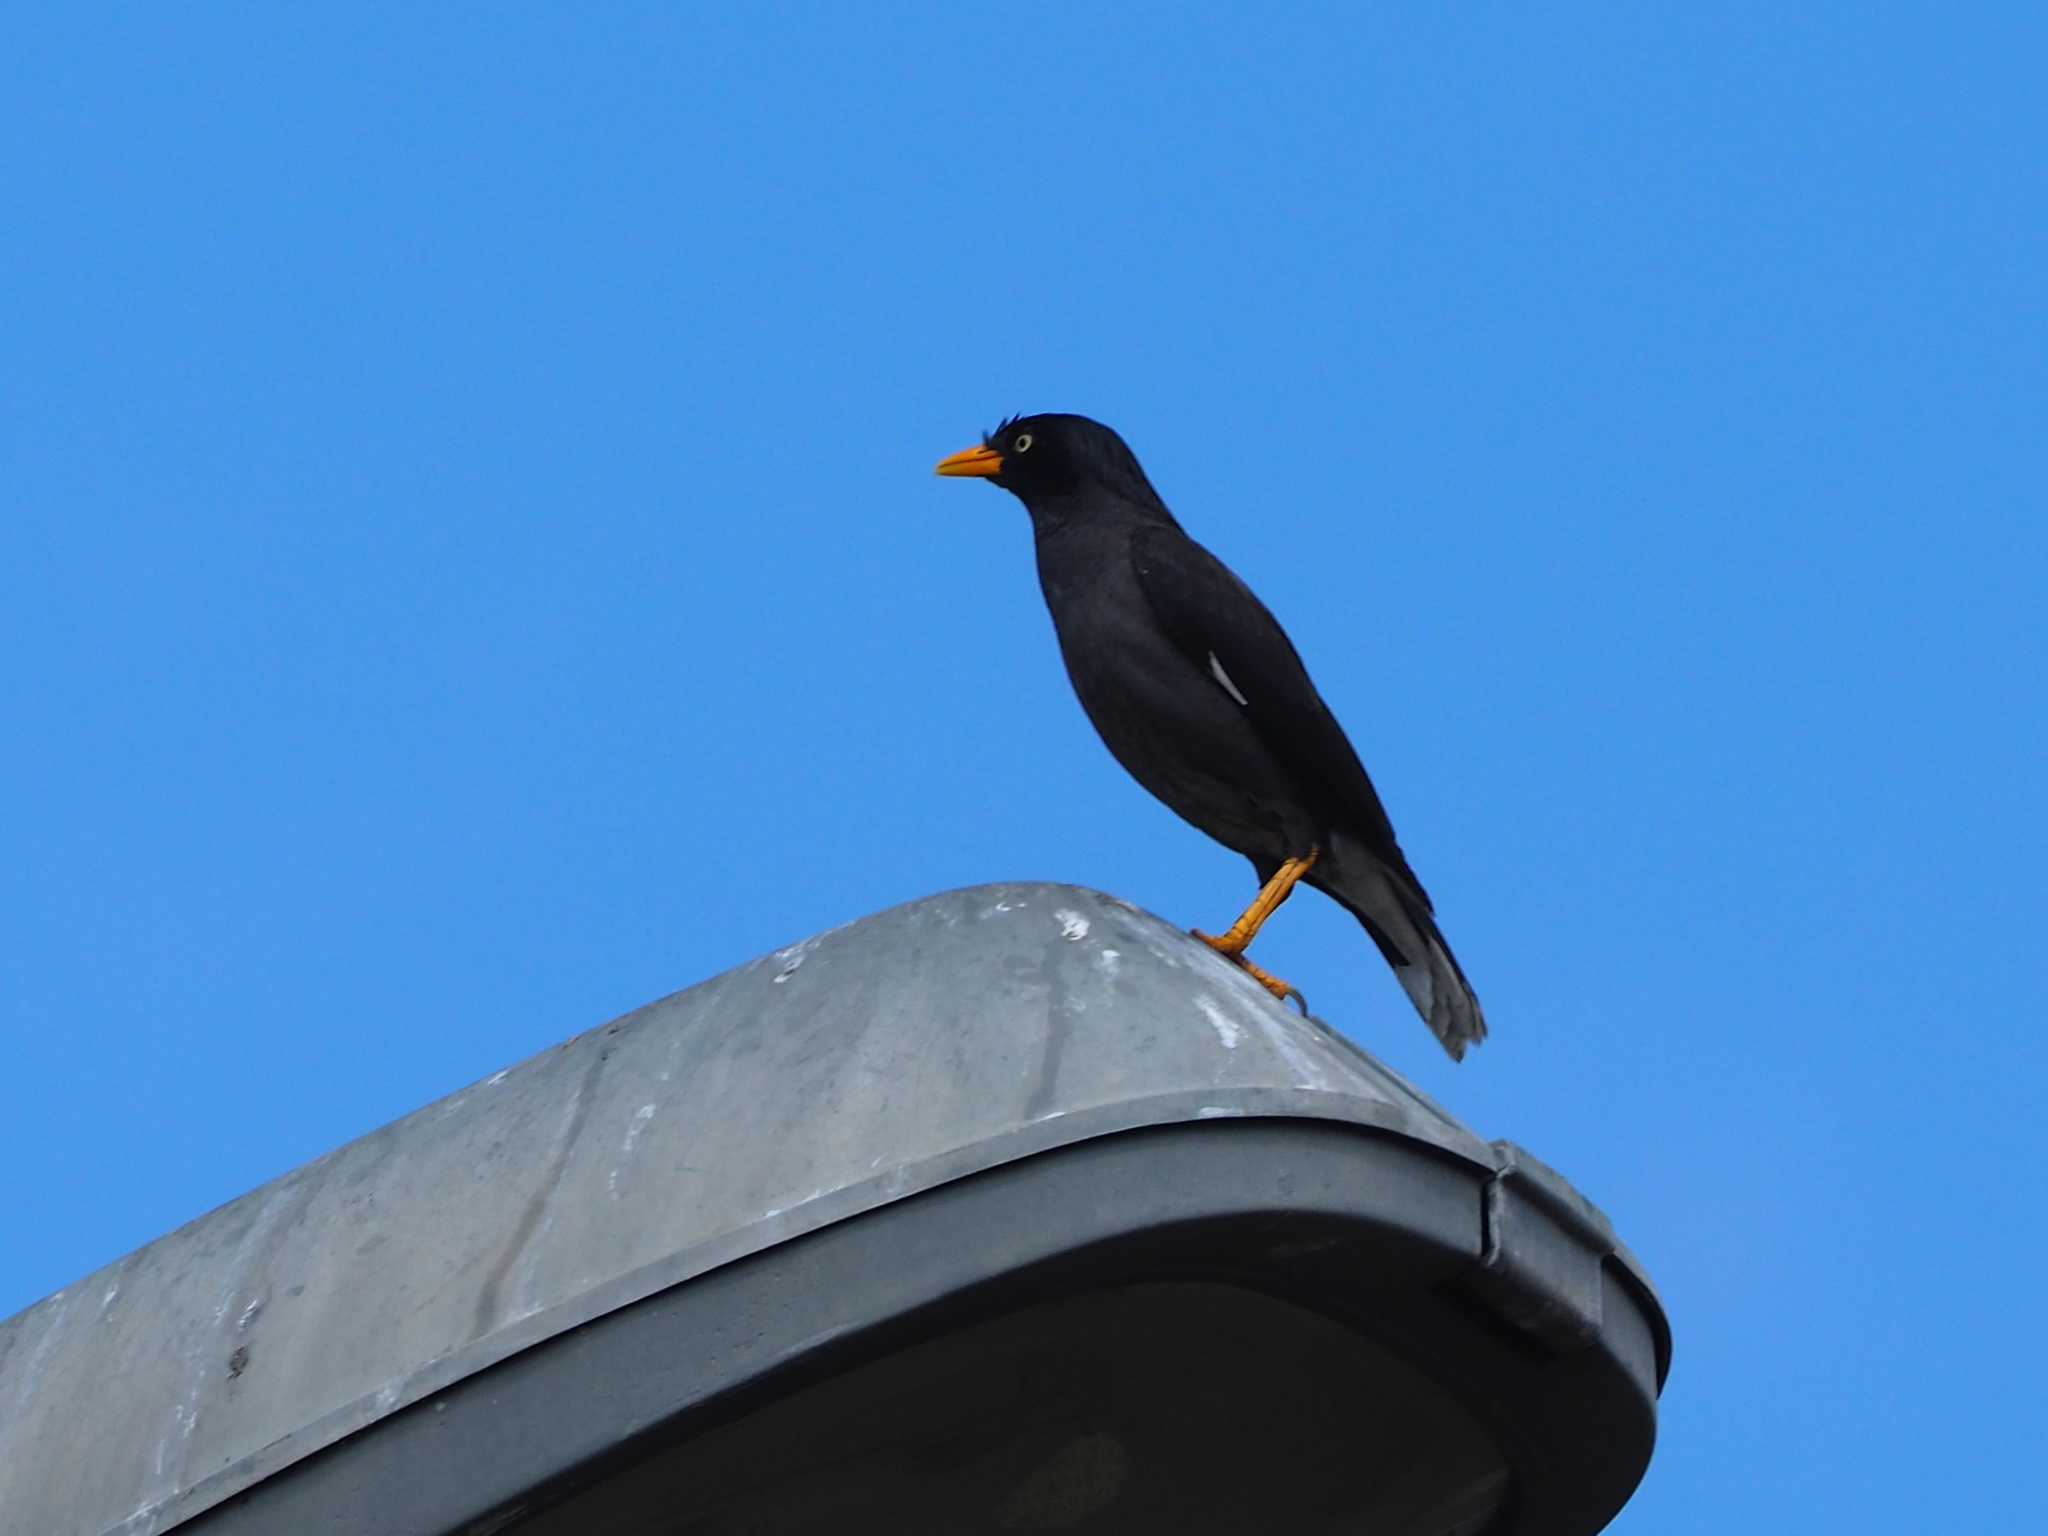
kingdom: Animalia
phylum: Chordata
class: Aves
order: Passeriformes
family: Sturnidae
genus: Acridotheres
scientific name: Acridotheres javanicus
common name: Javan myna
